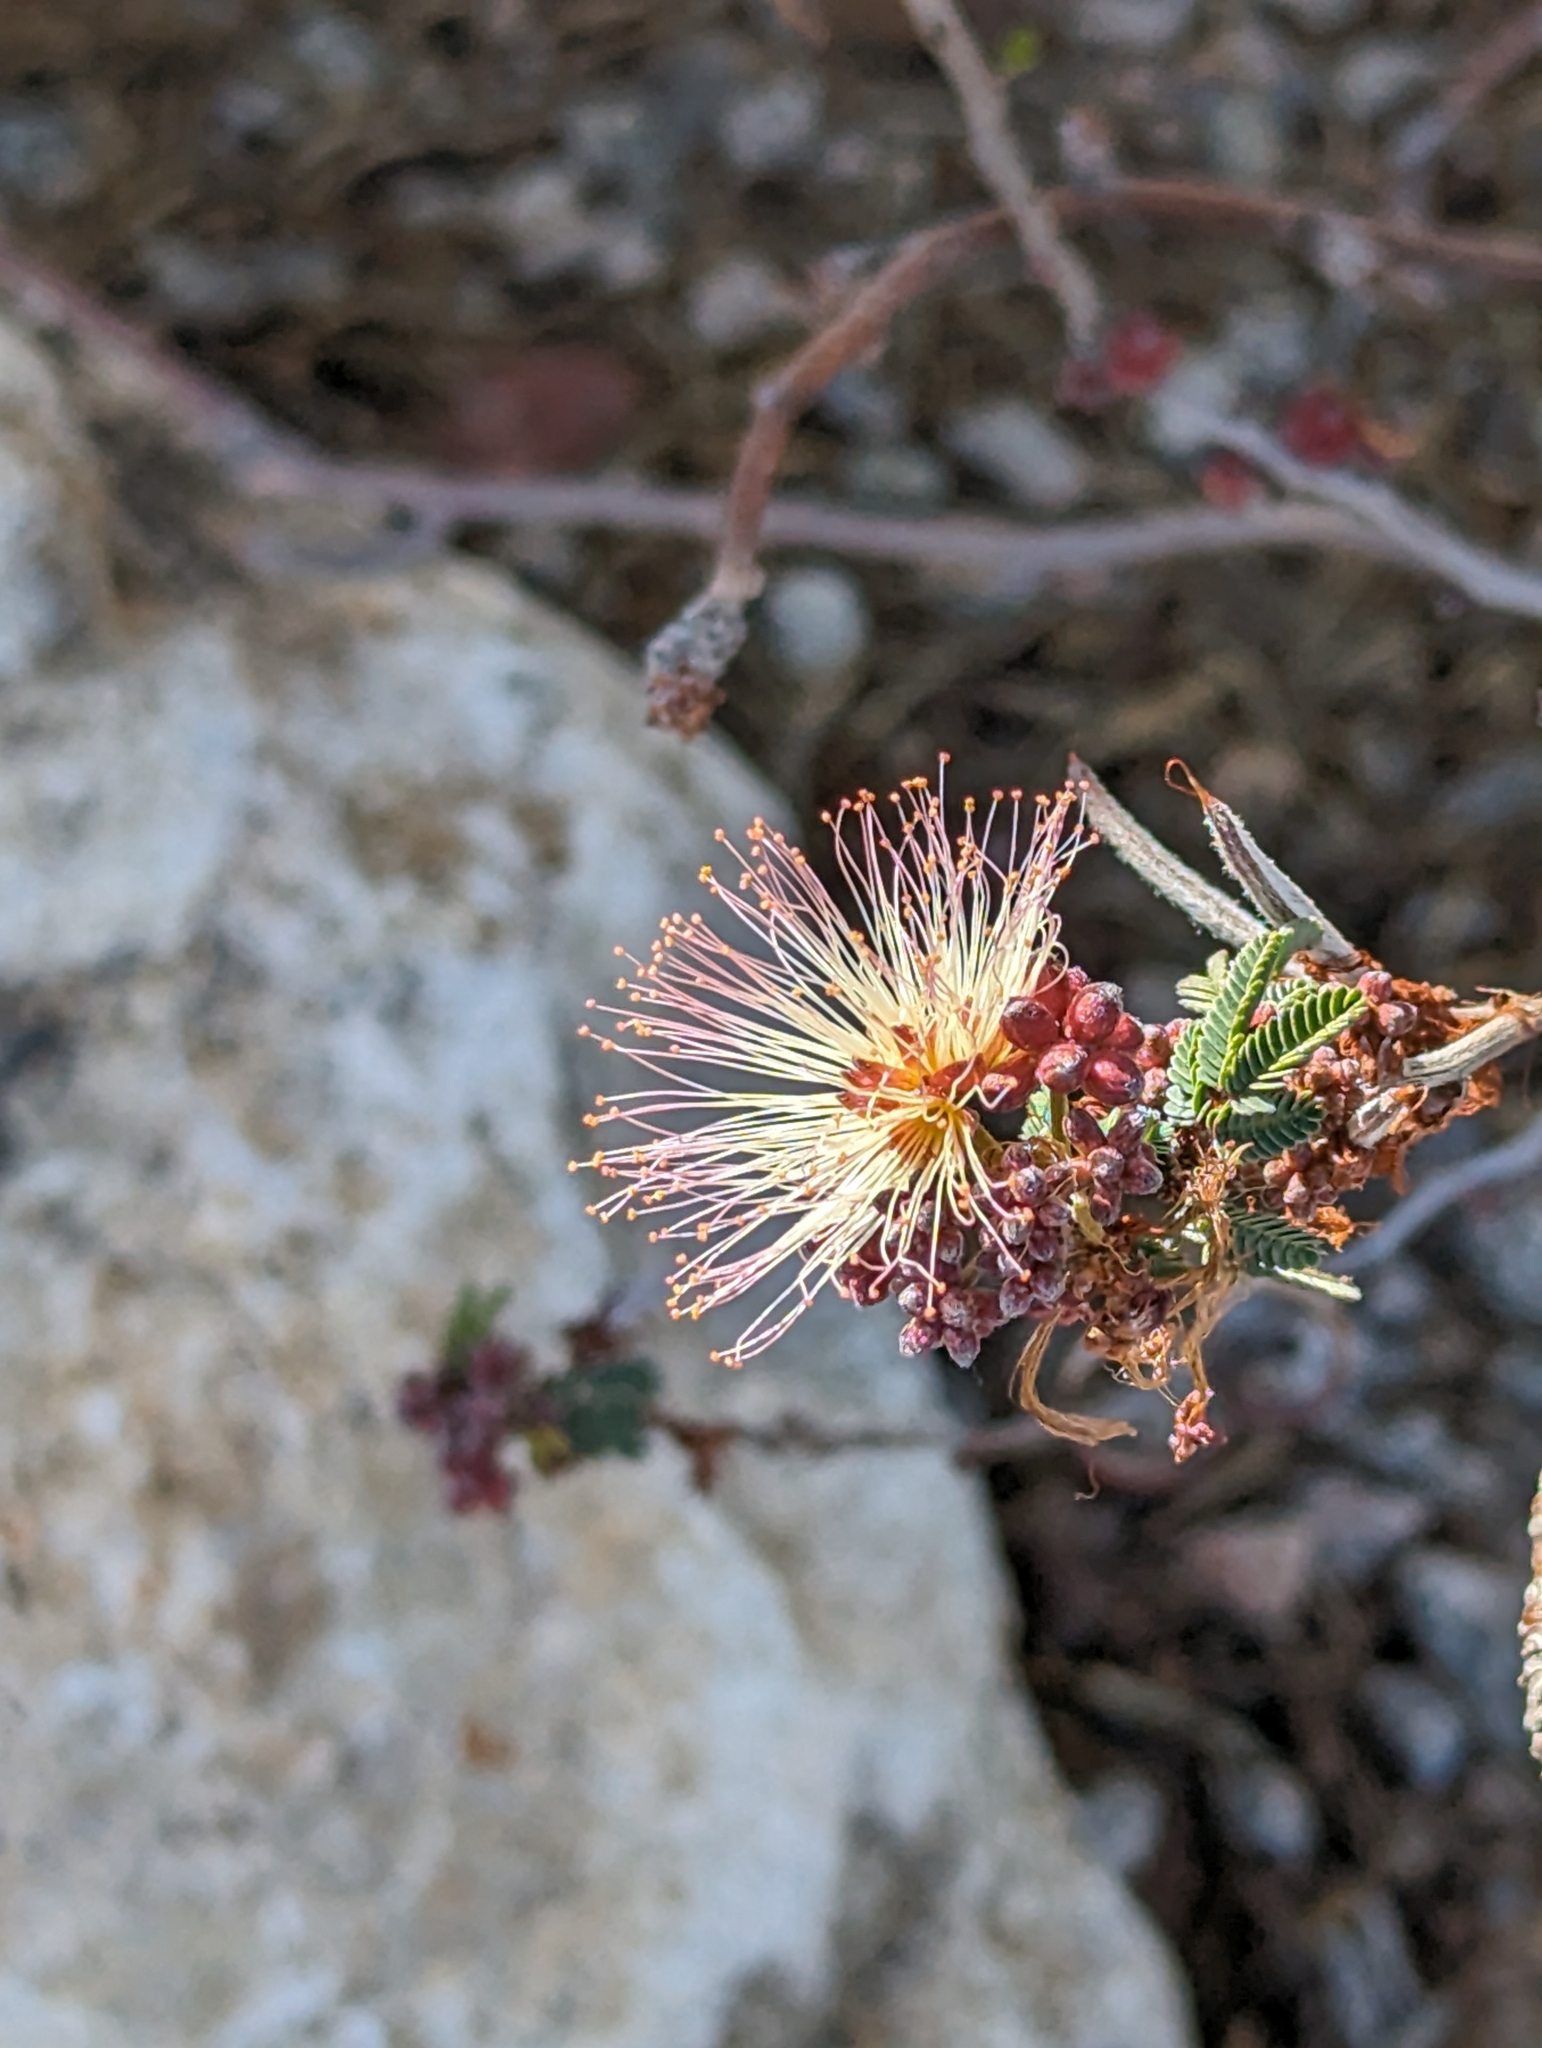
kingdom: Plantae
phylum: Tracheophyta
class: Magnoliopsida
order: Fabales
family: Fabaceae
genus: Calliandra
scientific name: Calliandra eriophylla
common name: Fairy-duster
